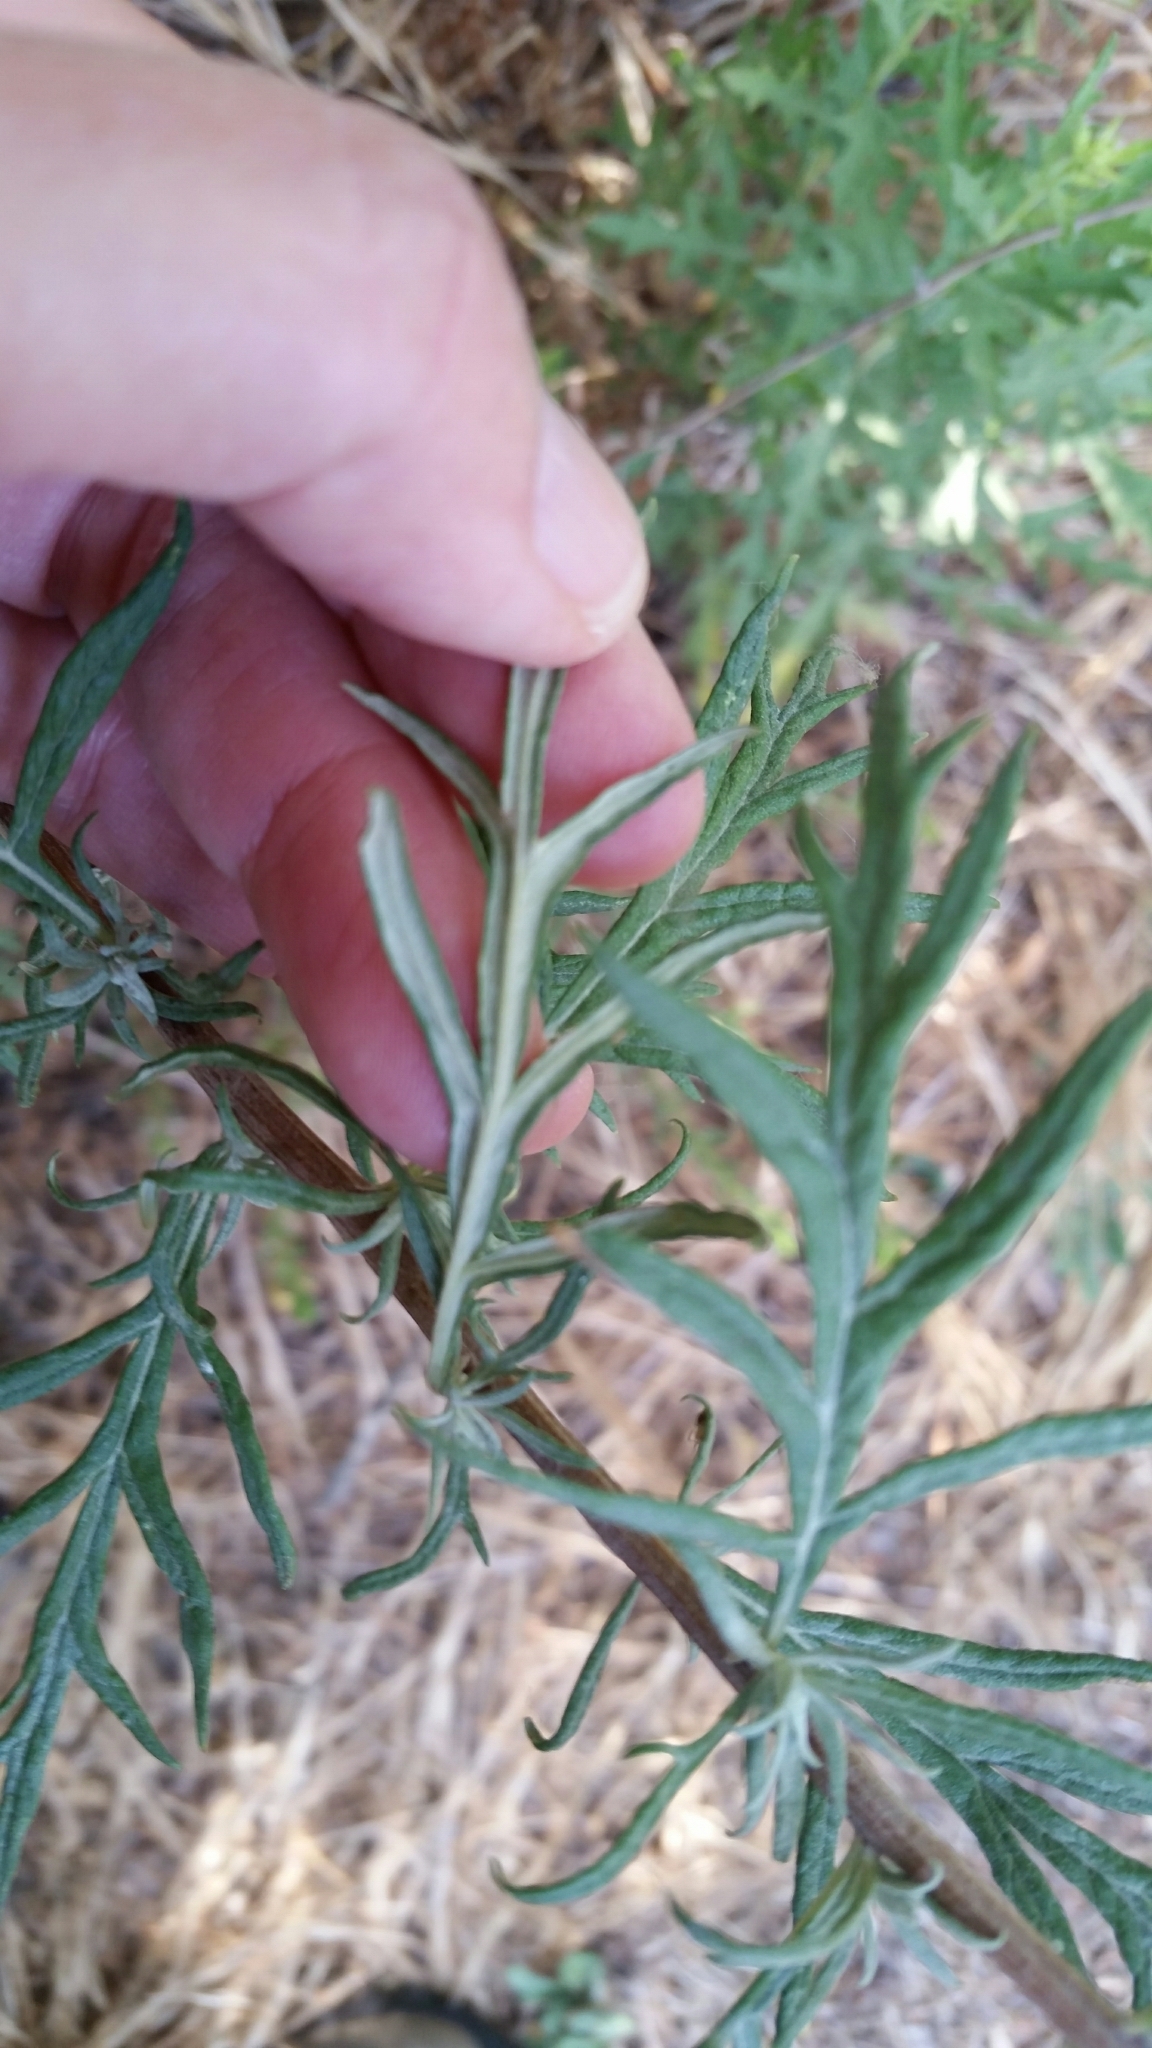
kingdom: Plantae
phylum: Tracheophyta
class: Magnoliopsida
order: Asterales
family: Asteraceae
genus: Artemisia
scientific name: Artemisia palmeri
